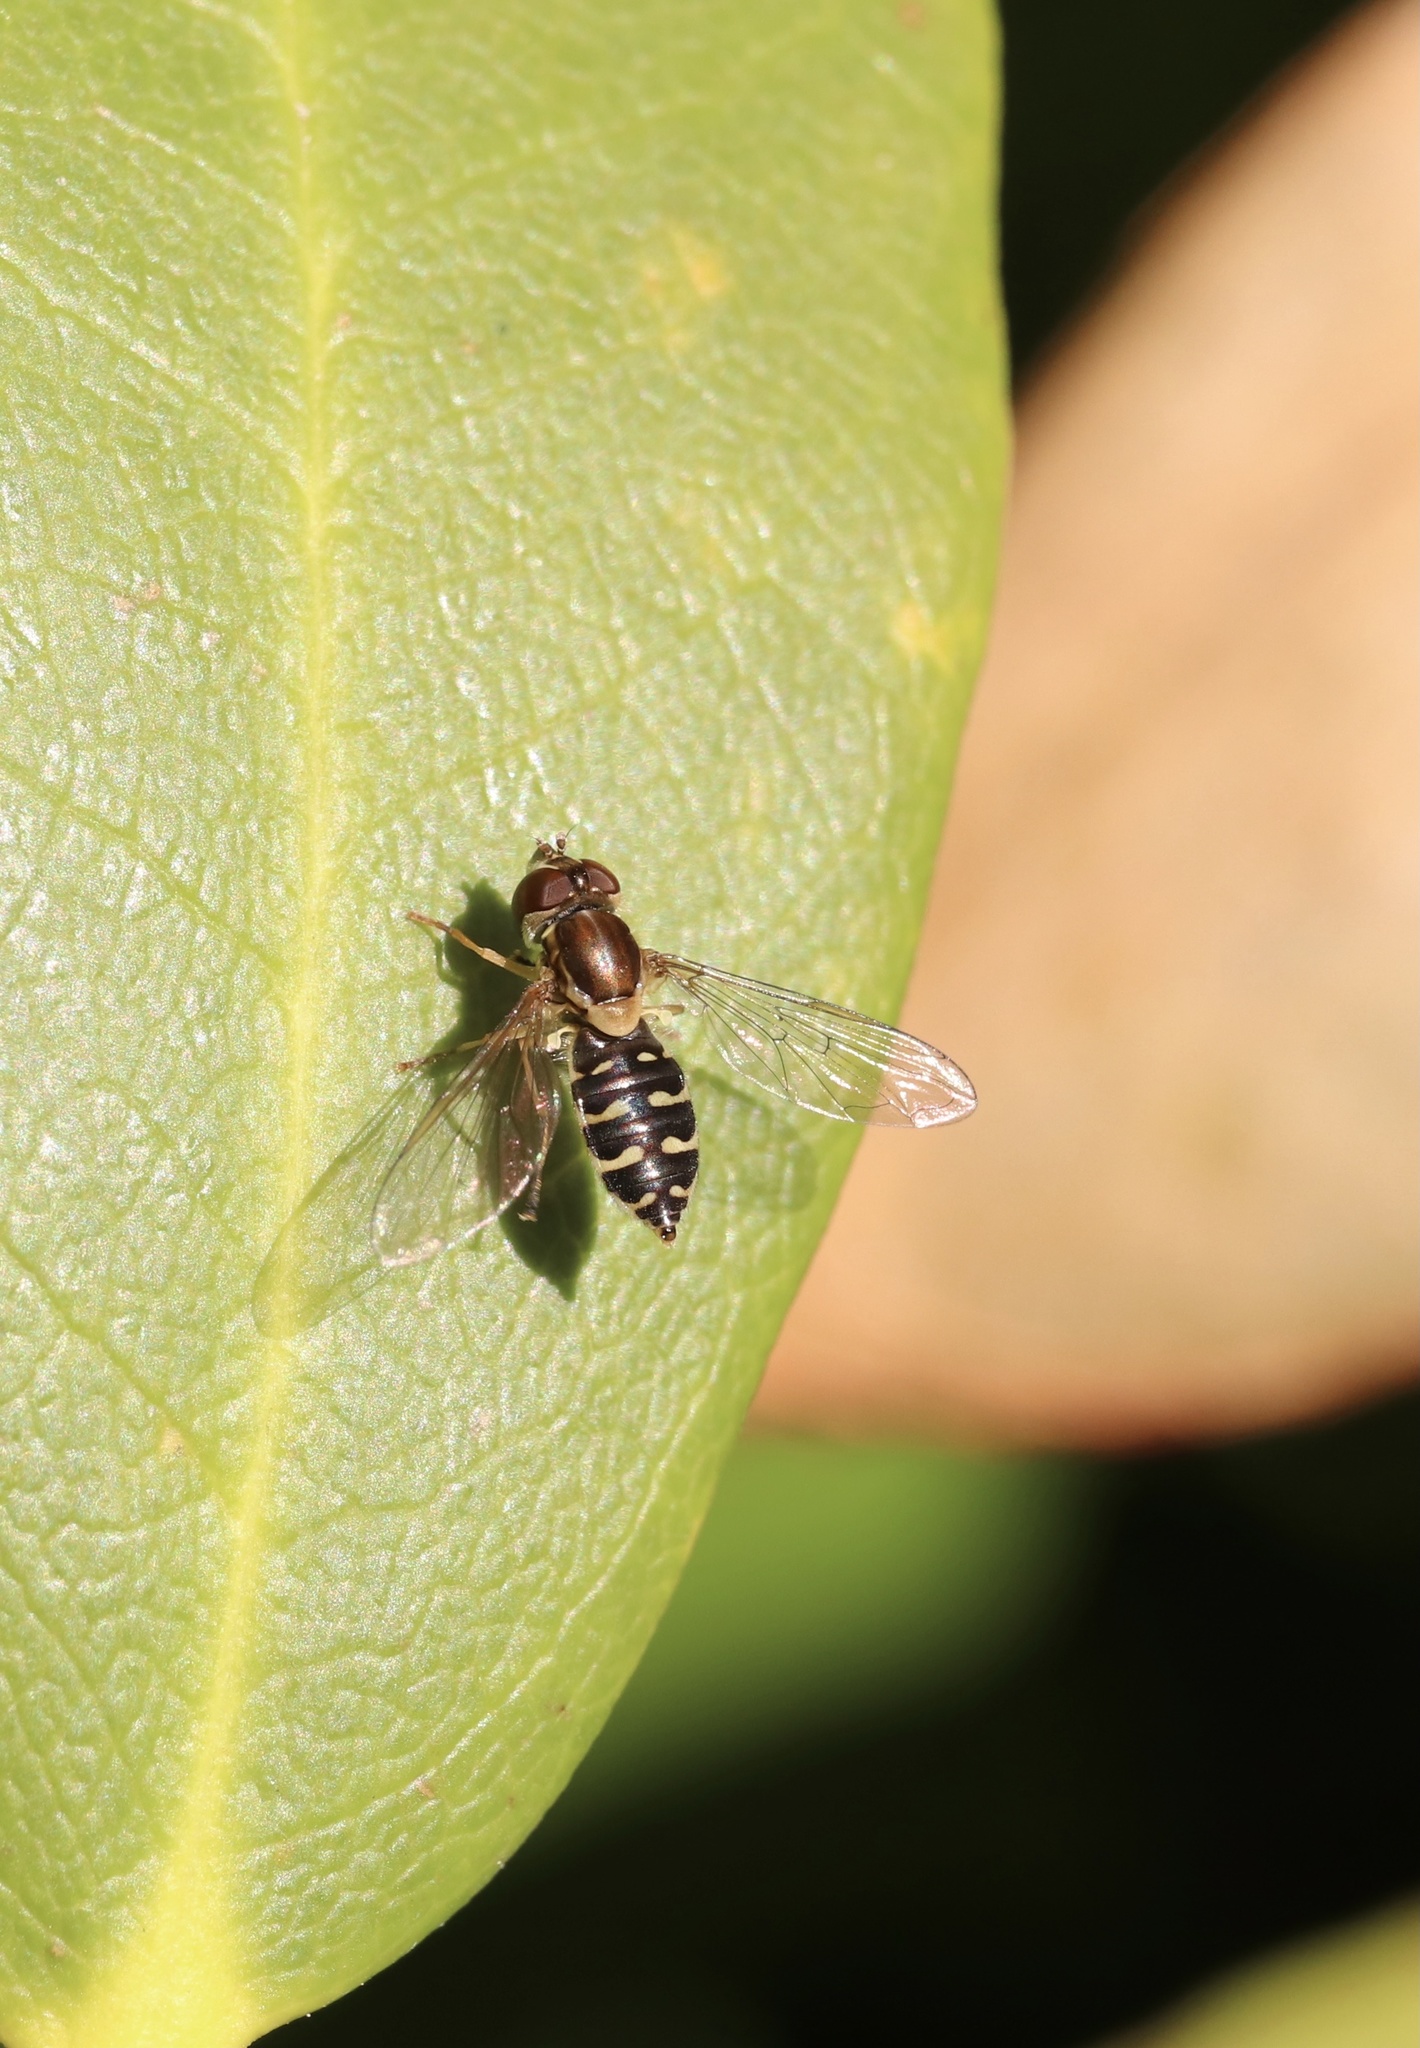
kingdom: Animalia
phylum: Arthropoda
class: Insecta
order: Diptera
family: Syrphidae
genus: Toxomerus
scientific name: Toxomerus vertebratus
